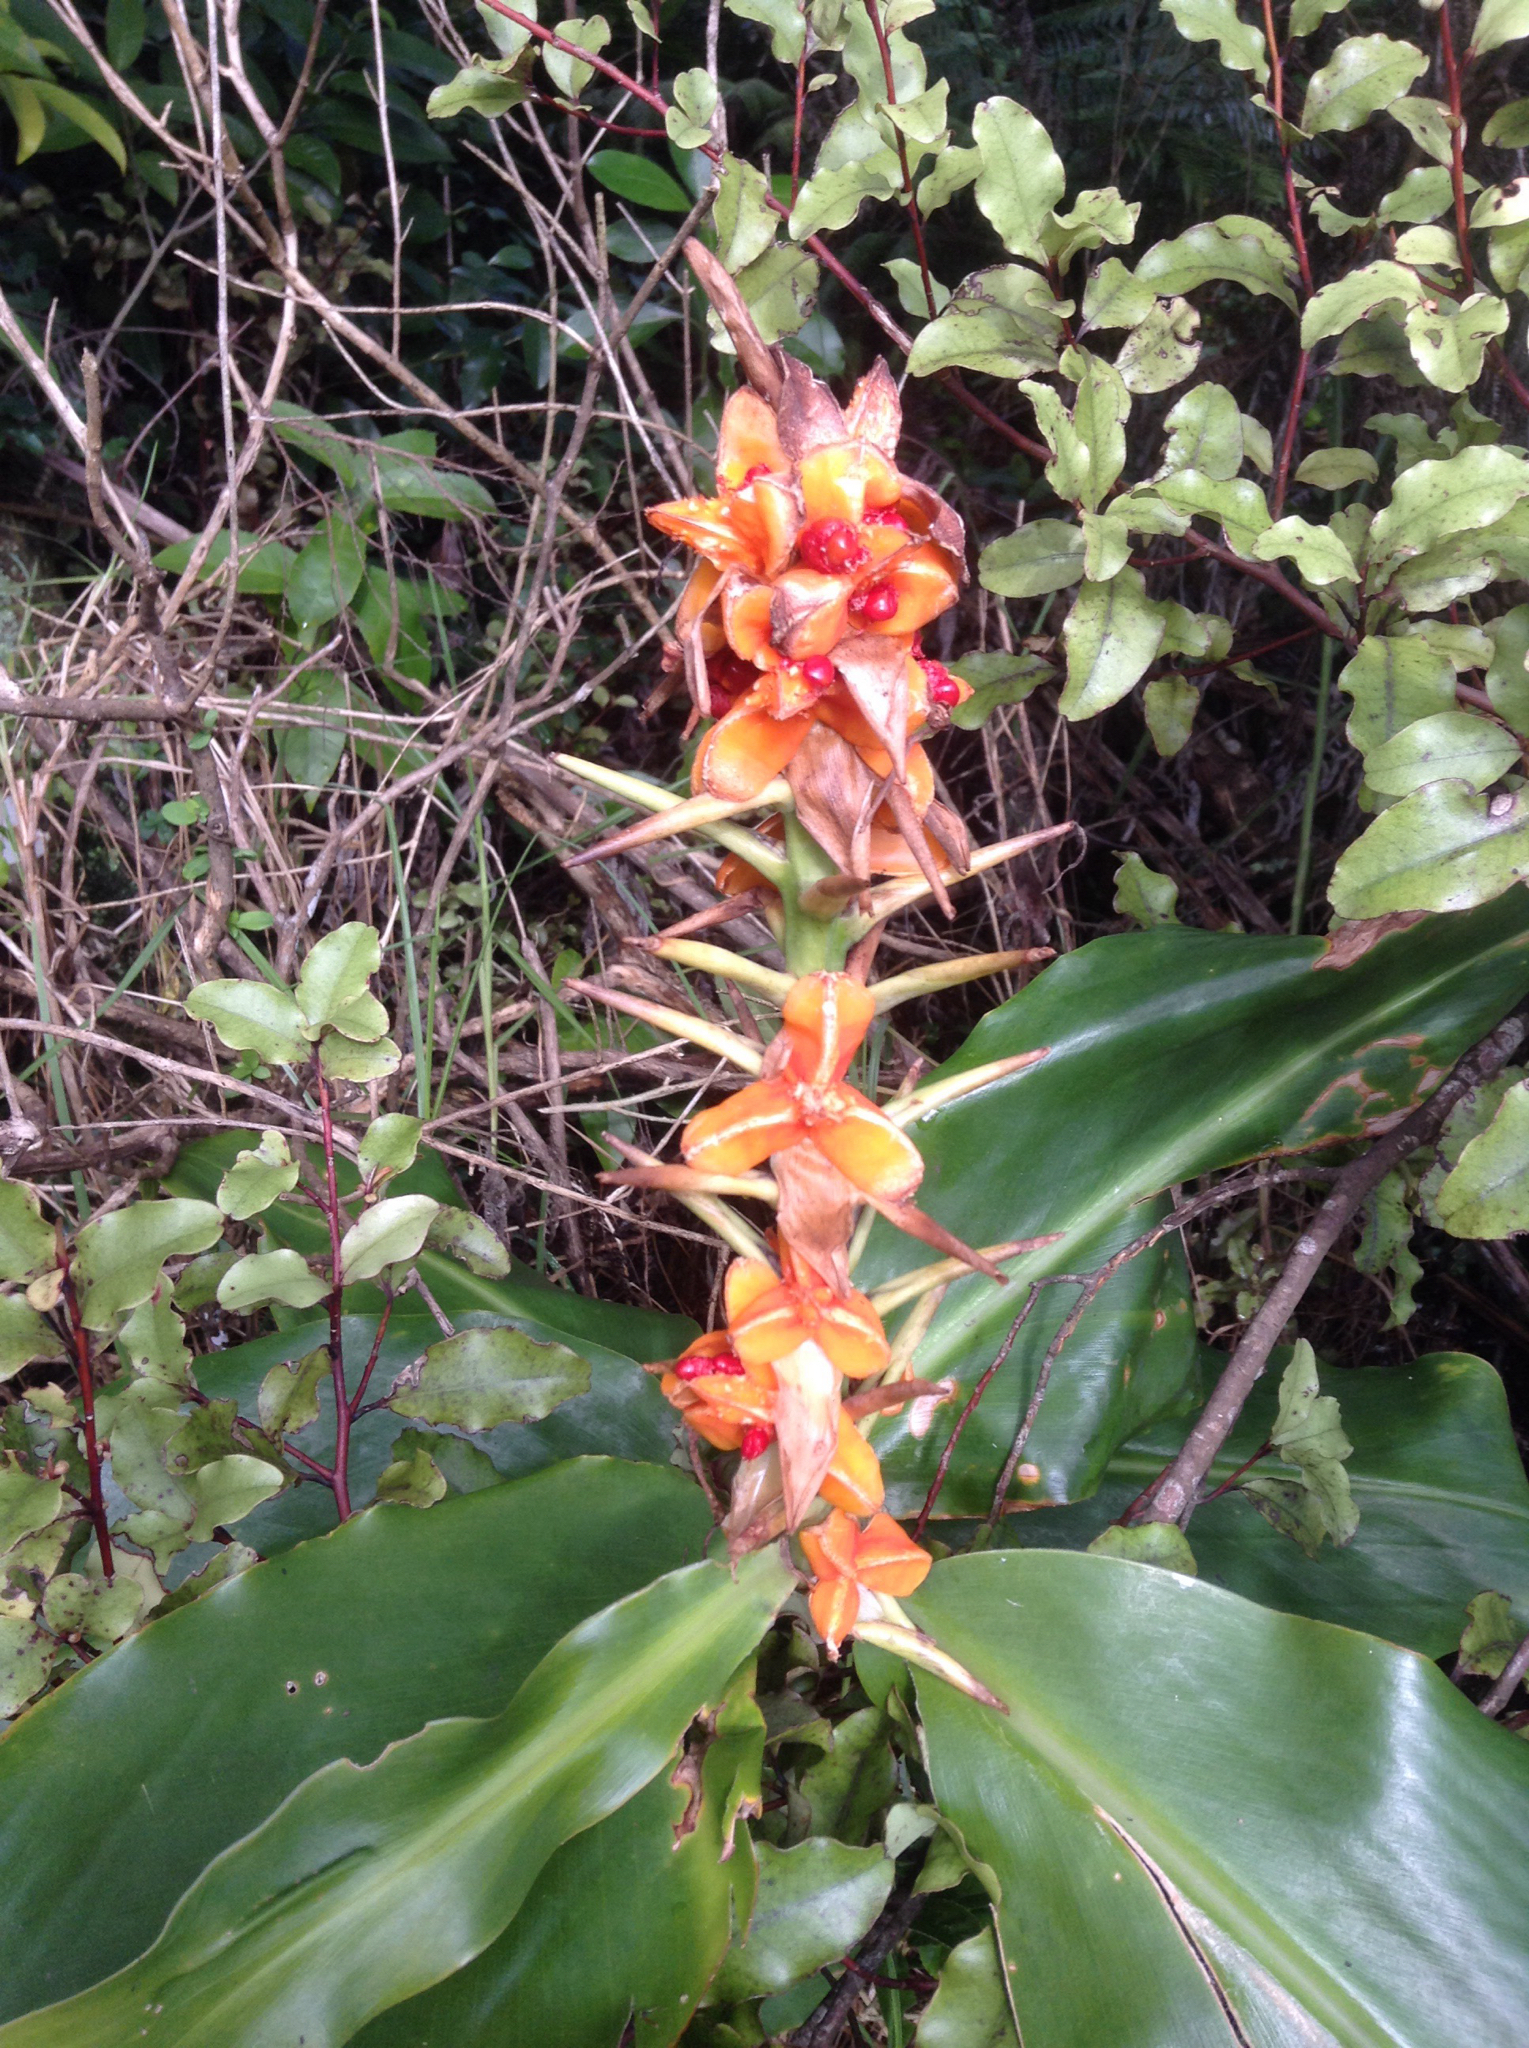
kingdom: Plantae
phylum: Tracheophyta
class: Liliopsida
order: Zingiberales
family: Zingiberaceae
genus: Hedychium
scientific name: Hedychium gardnerianum
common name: Himalayan ginger
